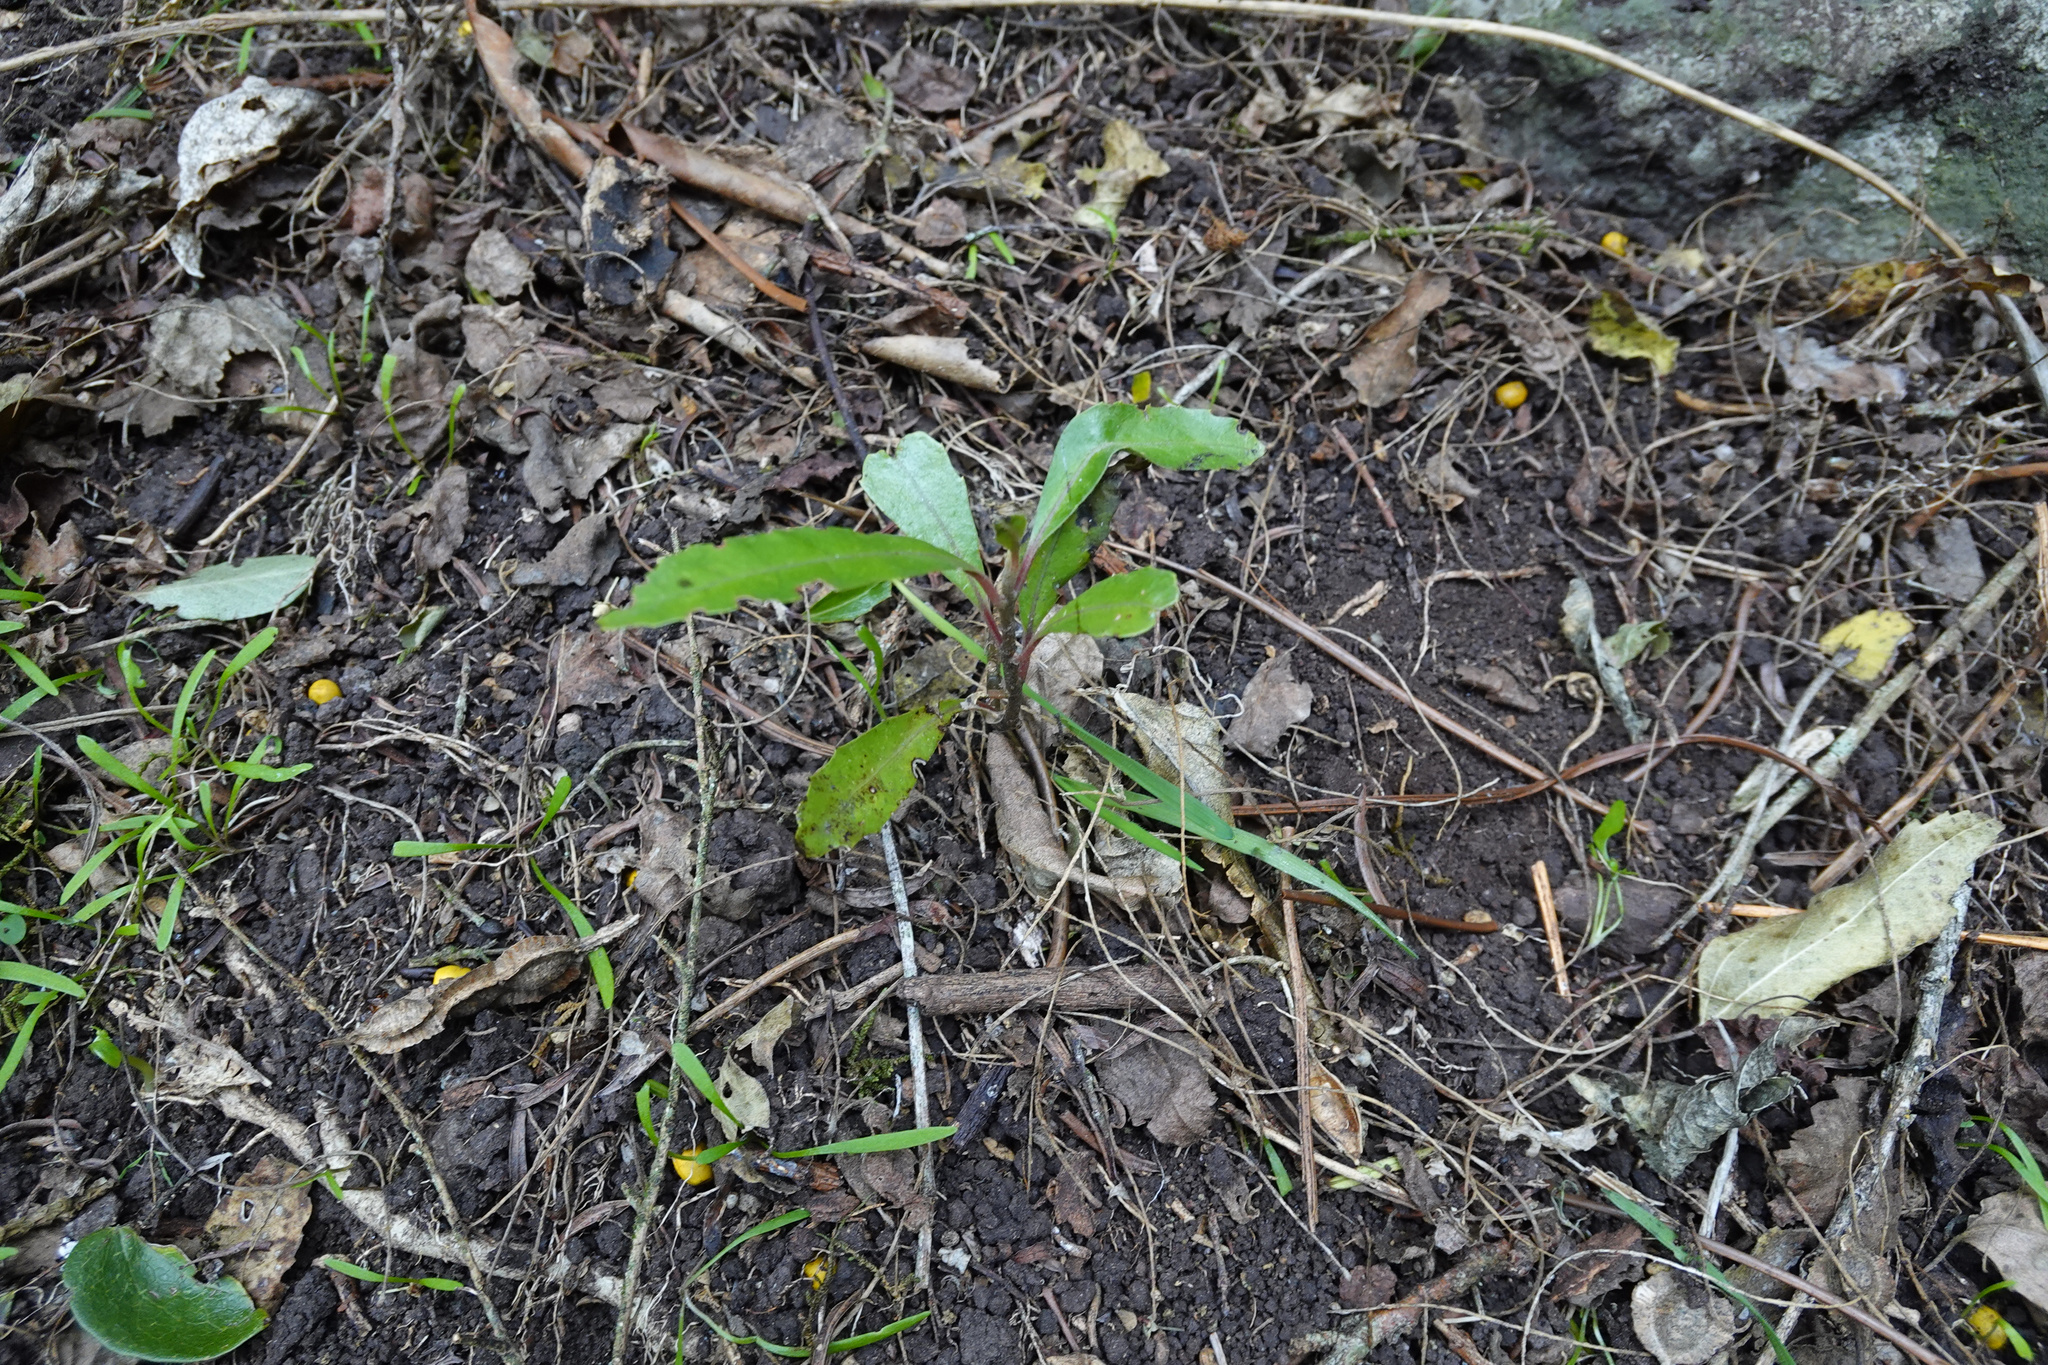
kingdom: Plantae
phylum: Tracheophyta
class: Magnoliopsida
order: Laurales
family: Monimiaceae
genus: Hedycarya
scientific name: Hedycarya arborea
